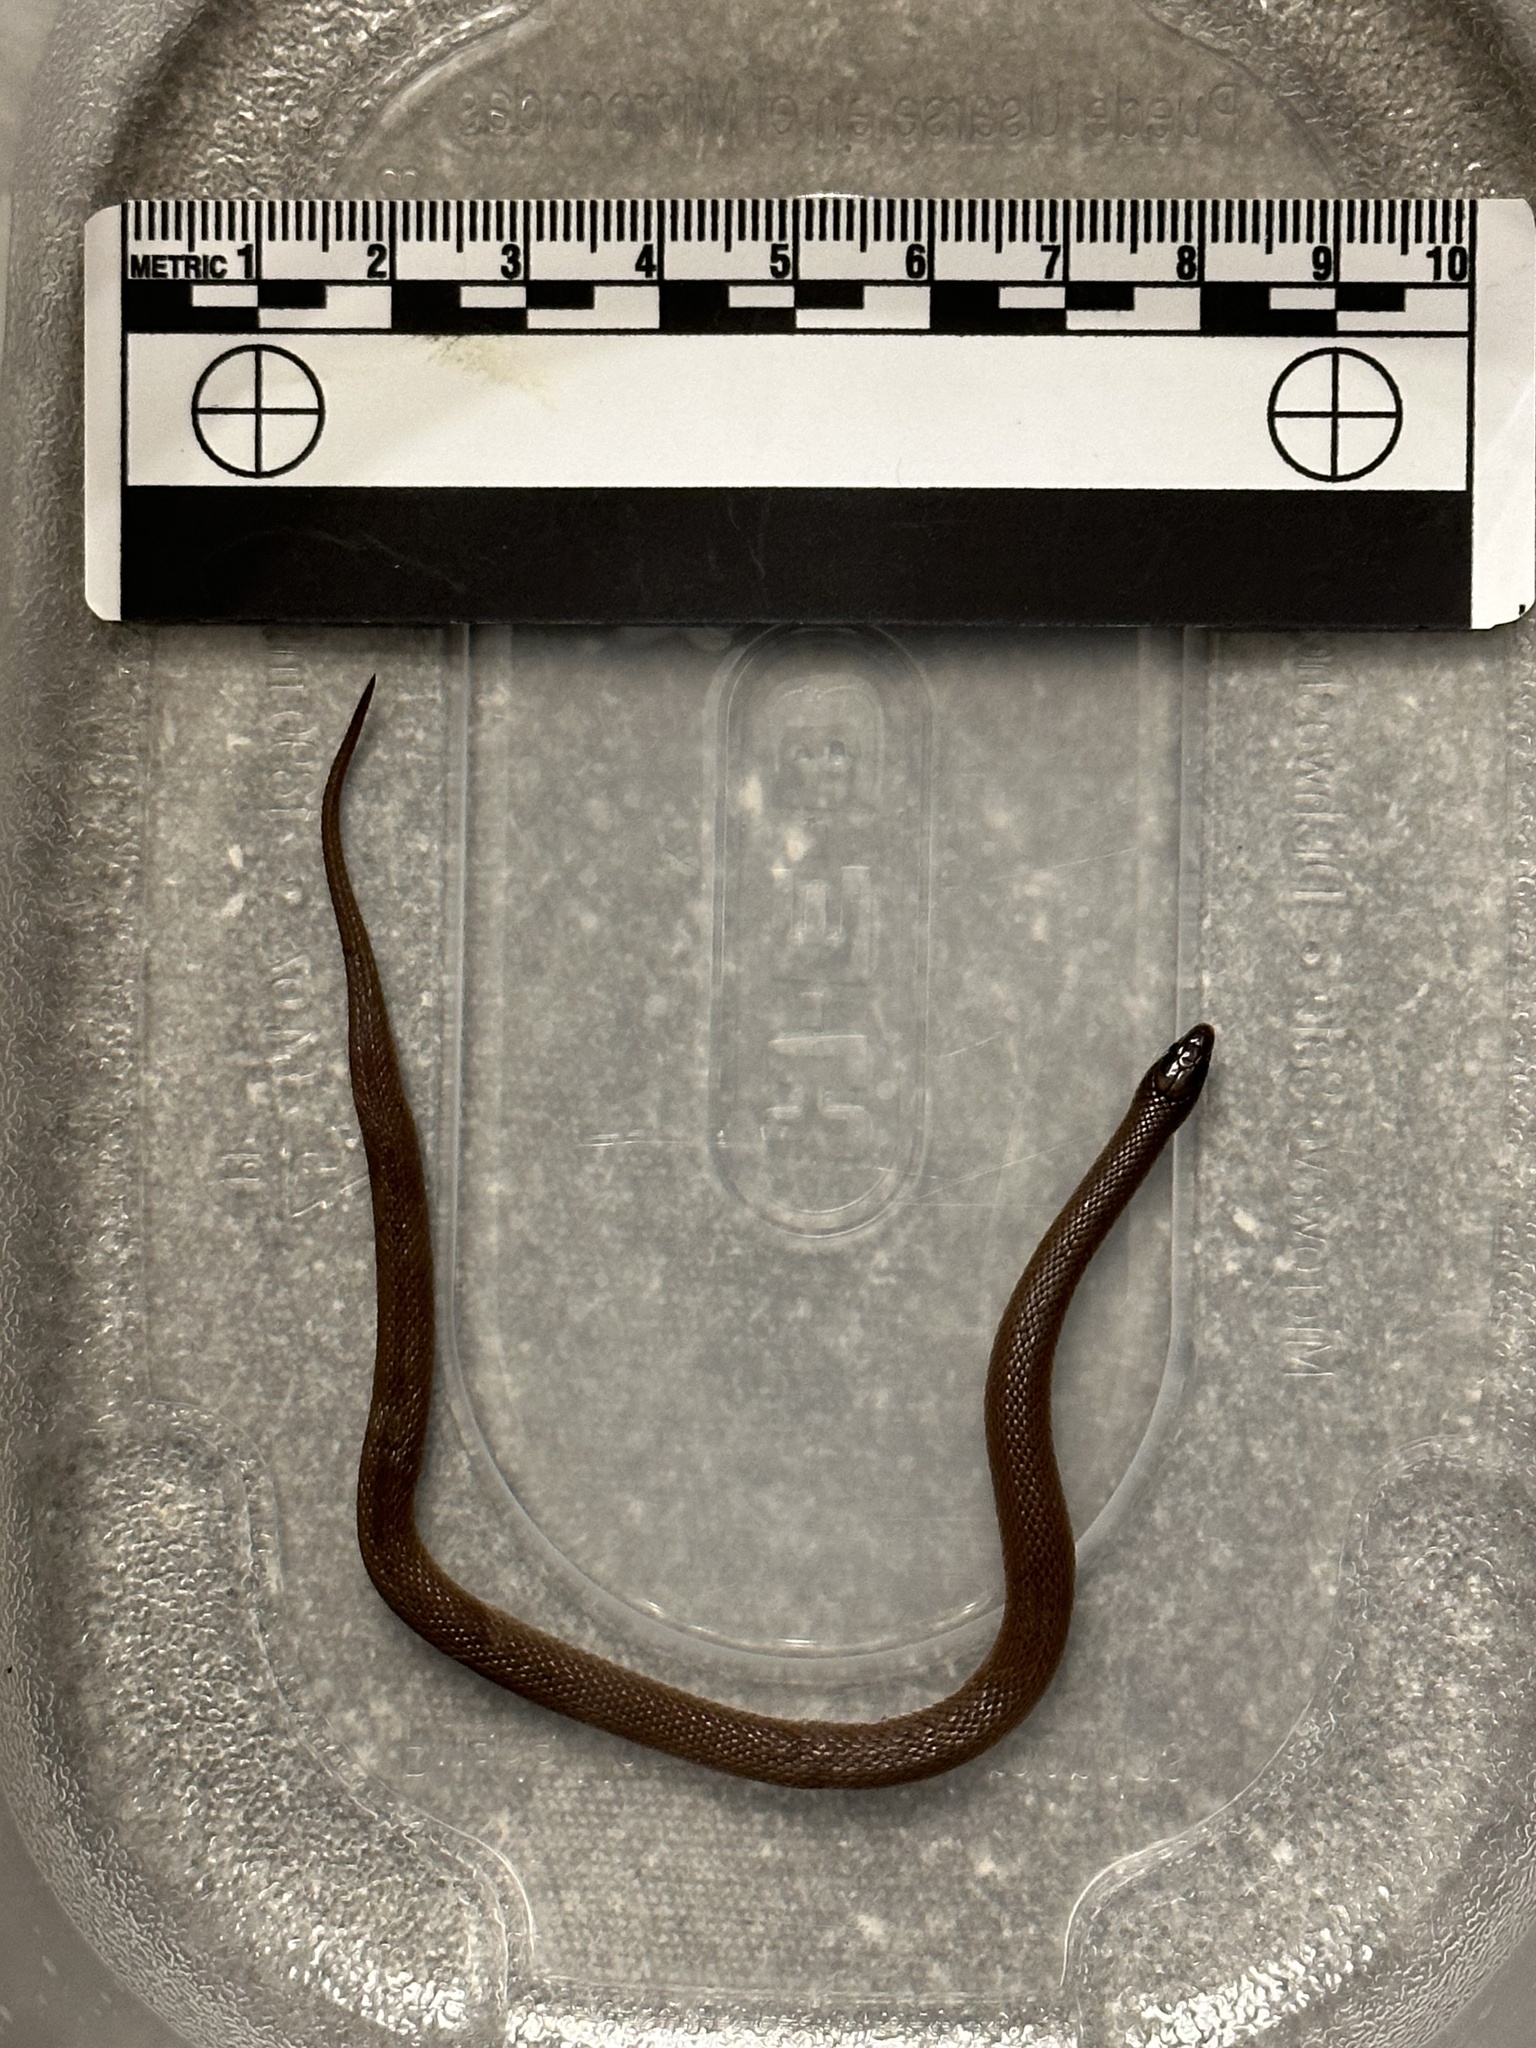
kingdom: Animalia
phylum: Chordata
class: Squamata
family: Colubridae
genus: Haldea
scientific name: Haldea striatula
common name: Rough earth snake
